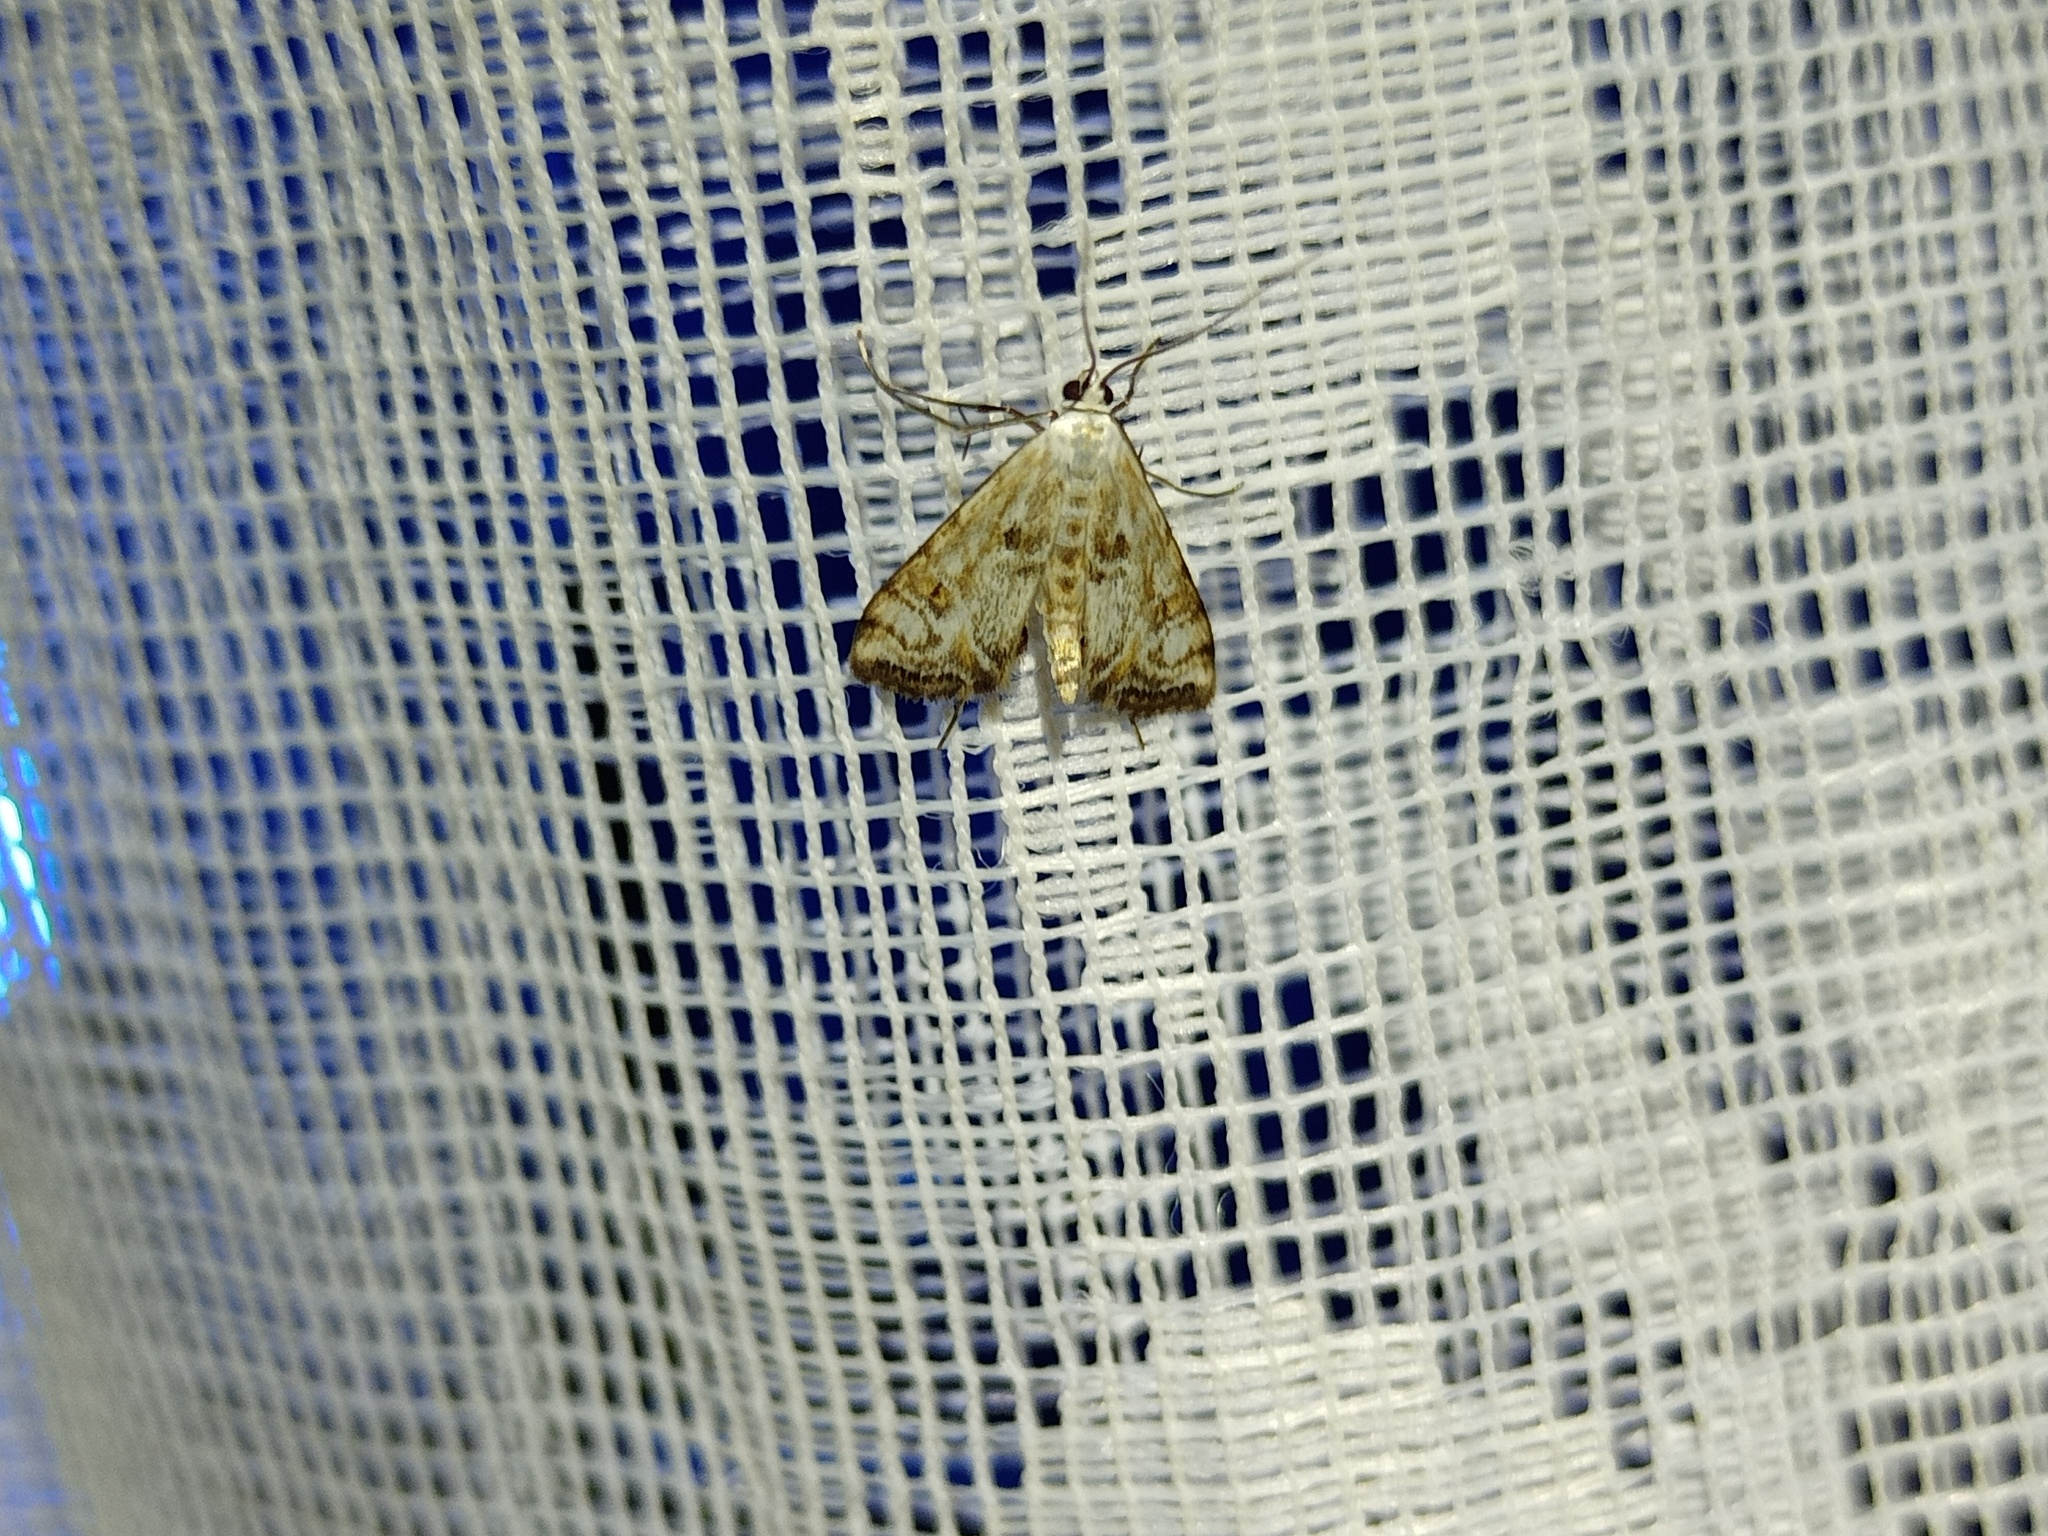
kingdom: Animalia
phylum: Arthropoda
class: Insecta
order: Lepidoptera
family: Crambidae
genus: Cataclysta
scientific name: Cataclysta lemnata
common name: Small china-mark
